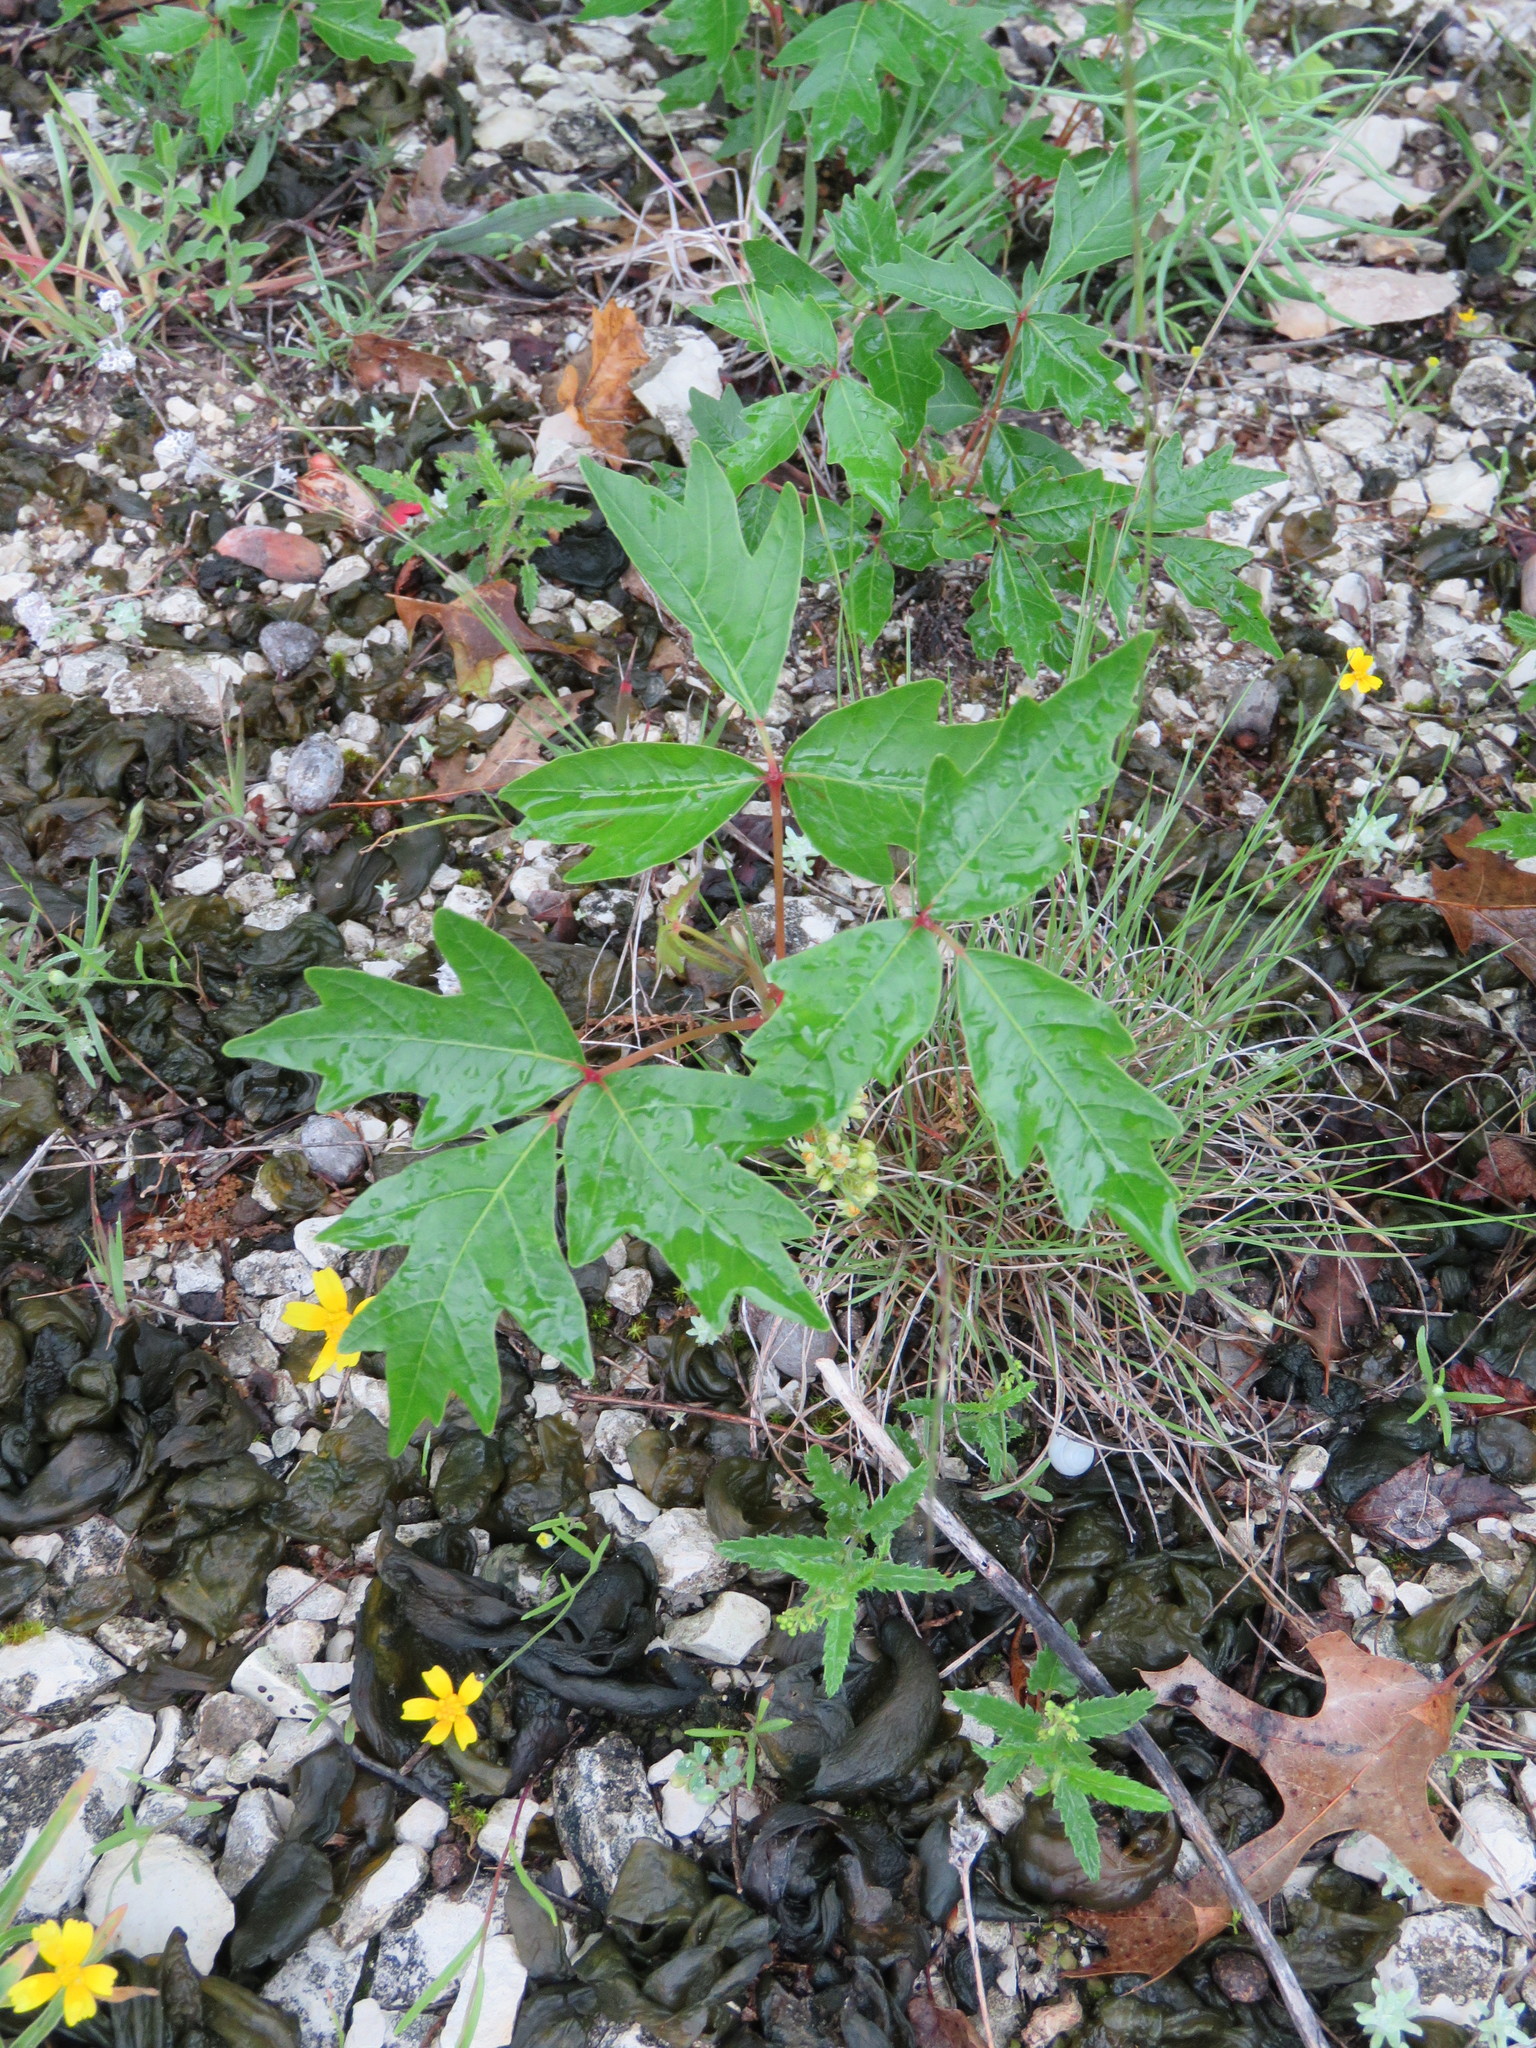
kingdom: Plantae
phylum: Tracheophyta
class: Magnoliopsida
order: Sapindales
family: Anacardiaceae
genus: Toxicodendron
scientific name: Toxicodendron radicans
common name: Poison ivy
